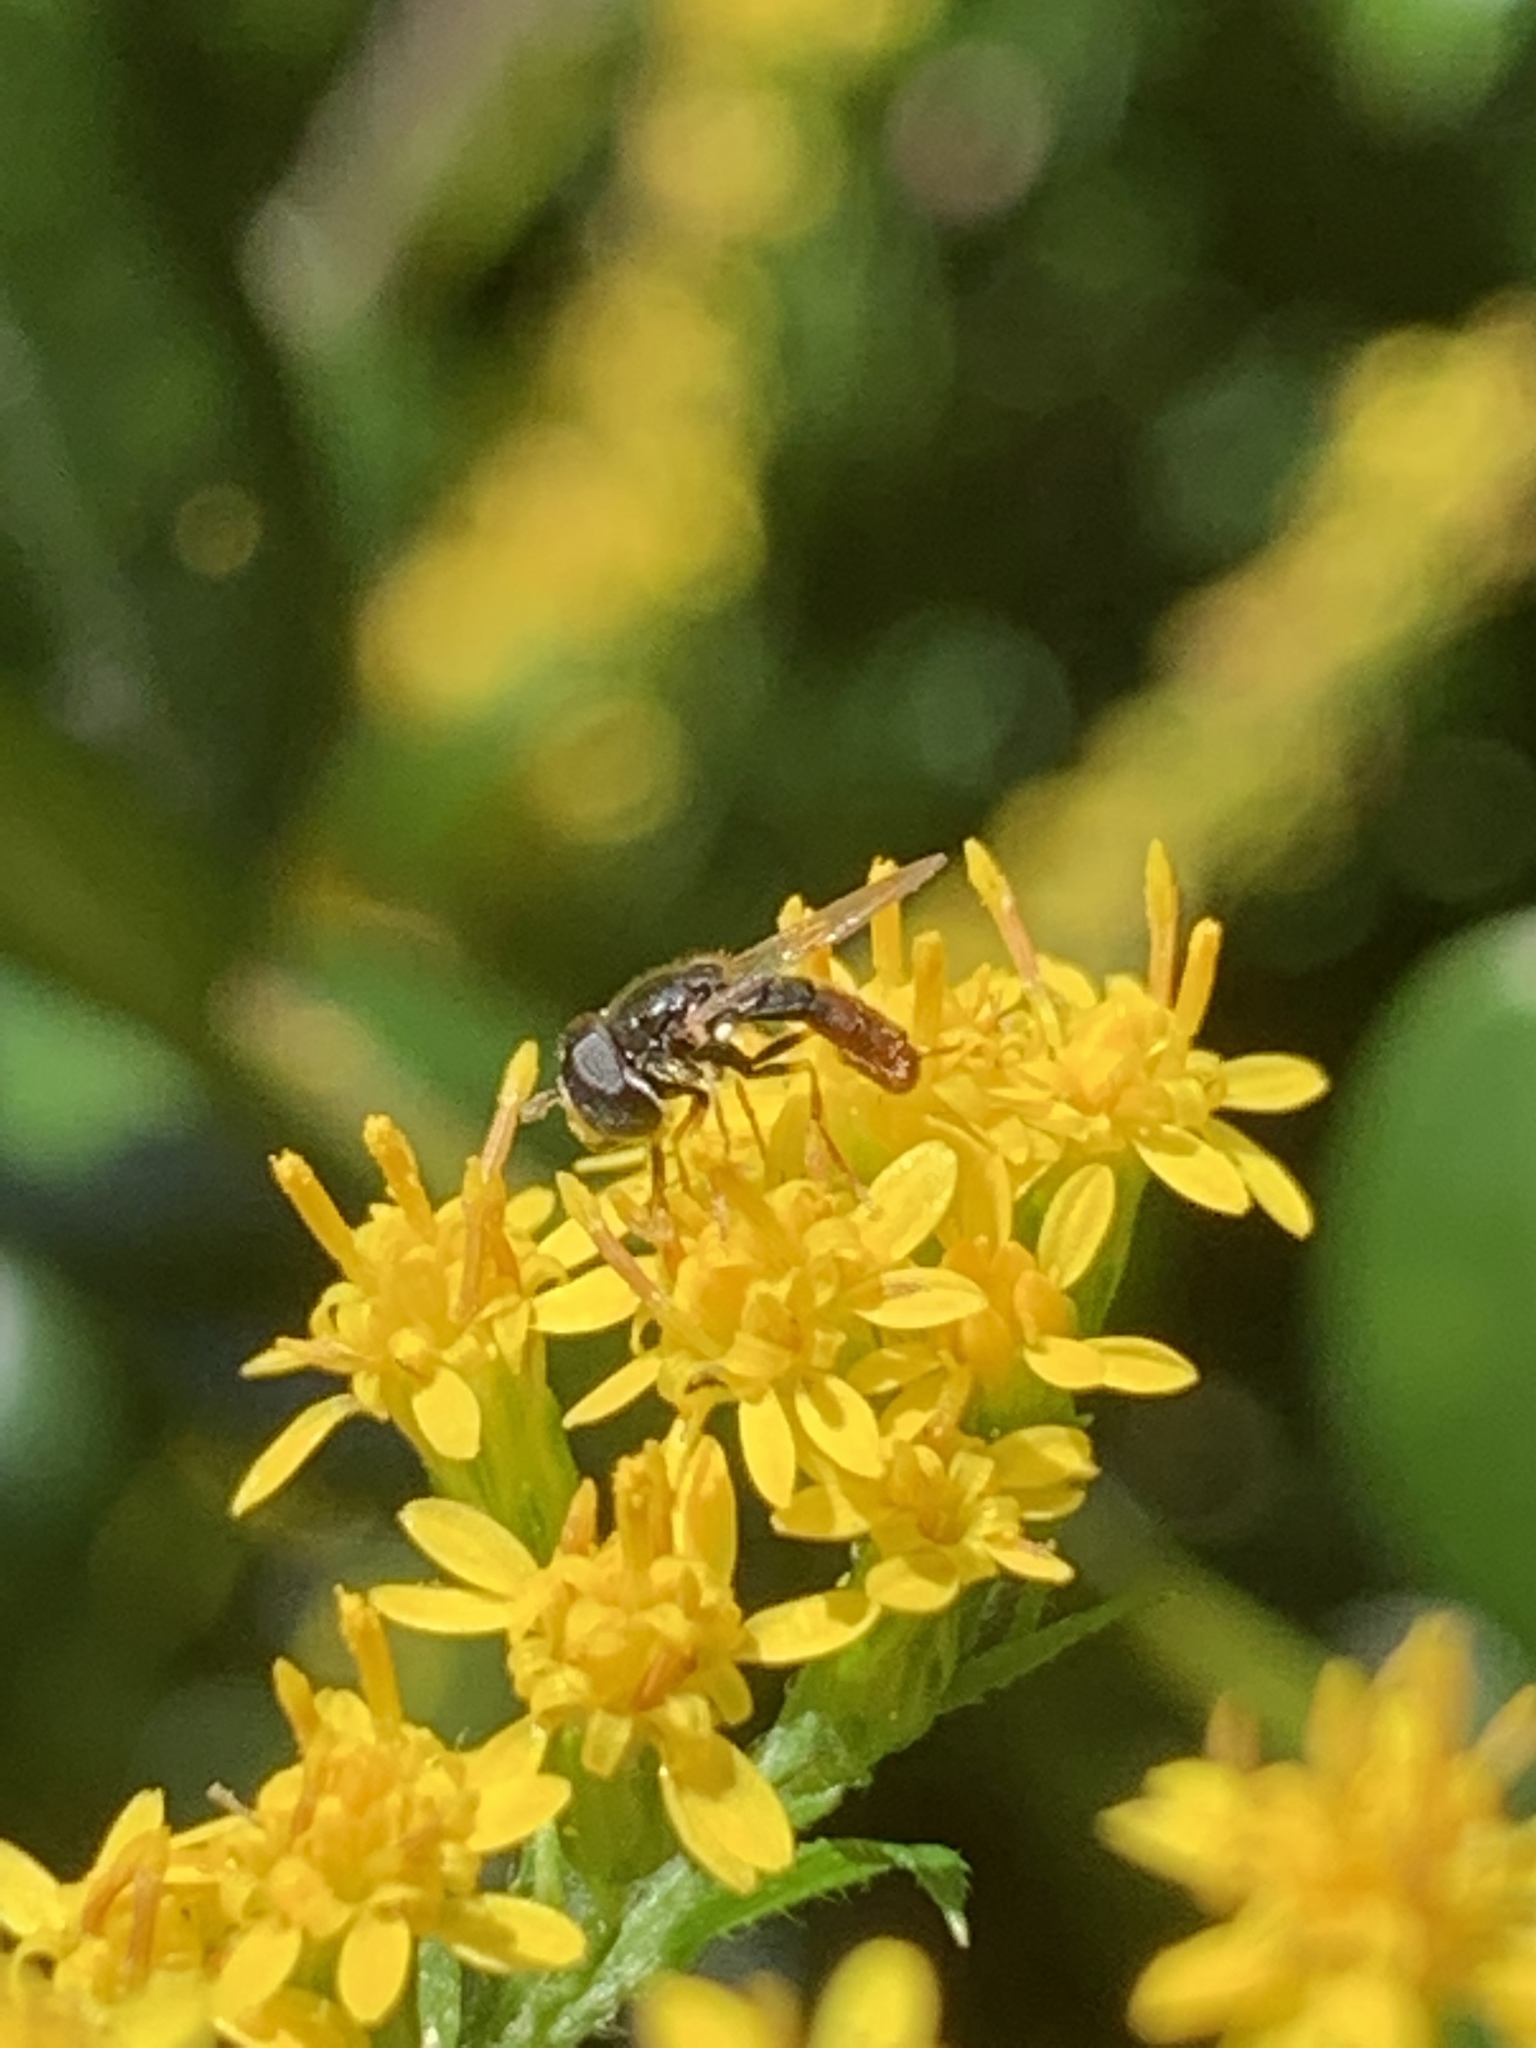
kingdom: Animalia
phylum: Arthropoda
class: Insecta
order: Diptera
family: Syrphidae
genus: Paragus
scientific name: Paragus haemorrhous
